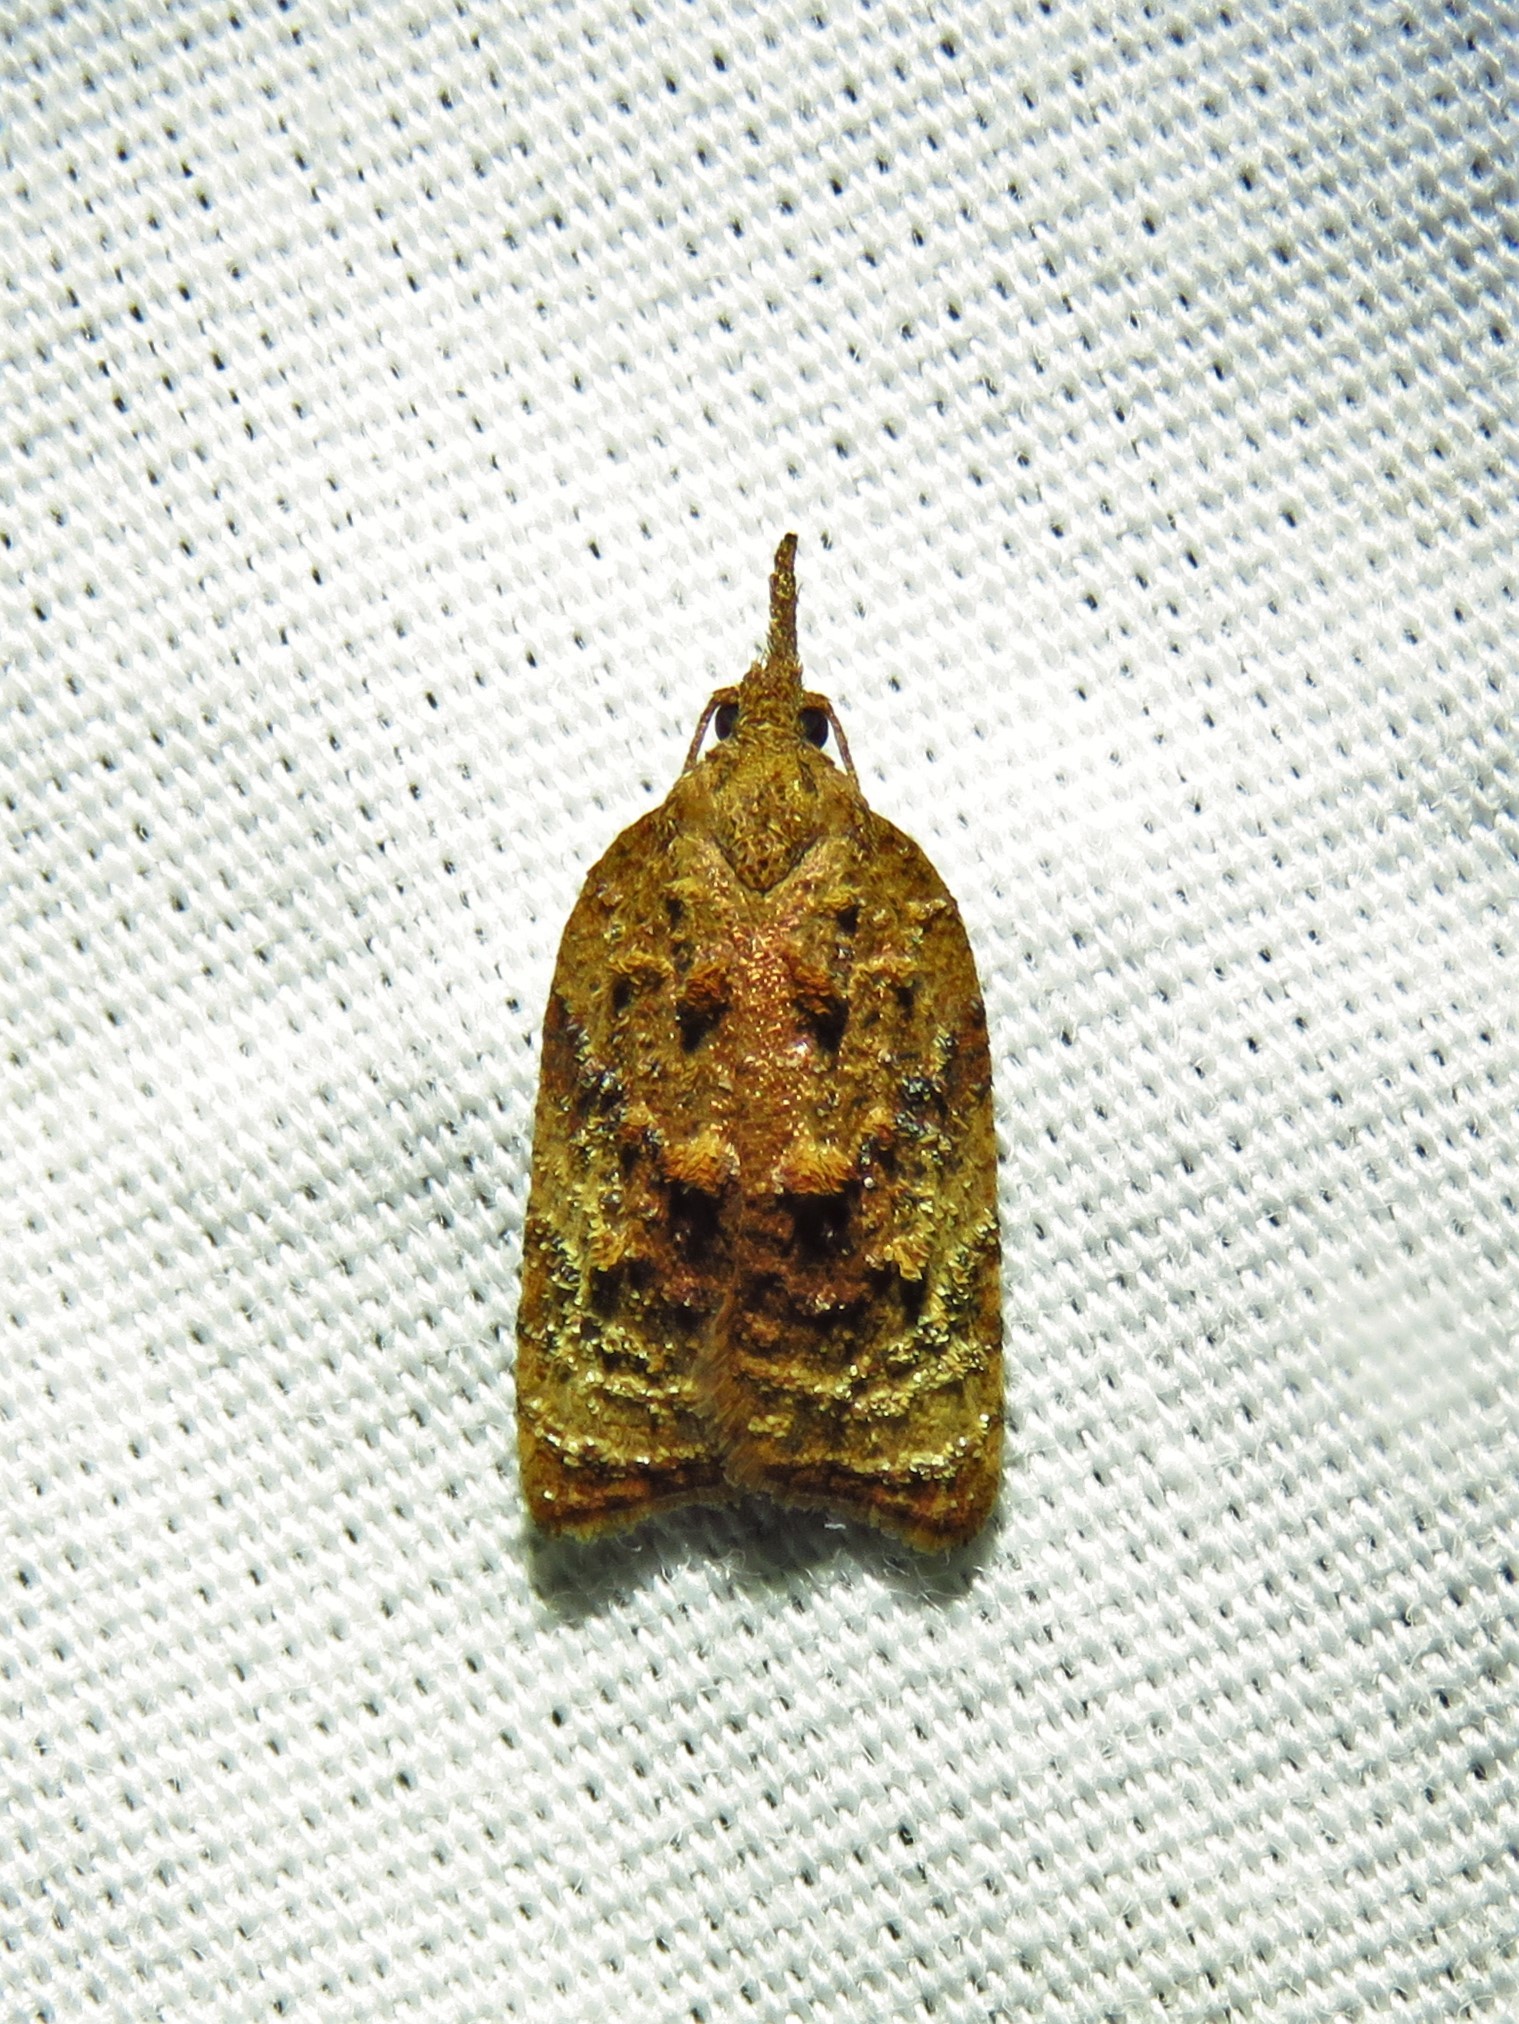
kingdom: Animalia
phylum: Arthropoda
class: Insecta
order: Lepidoptera
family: Tortricidae
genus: Platynota
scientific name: Platynota flavedana
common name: Black-shaded platynota moth
